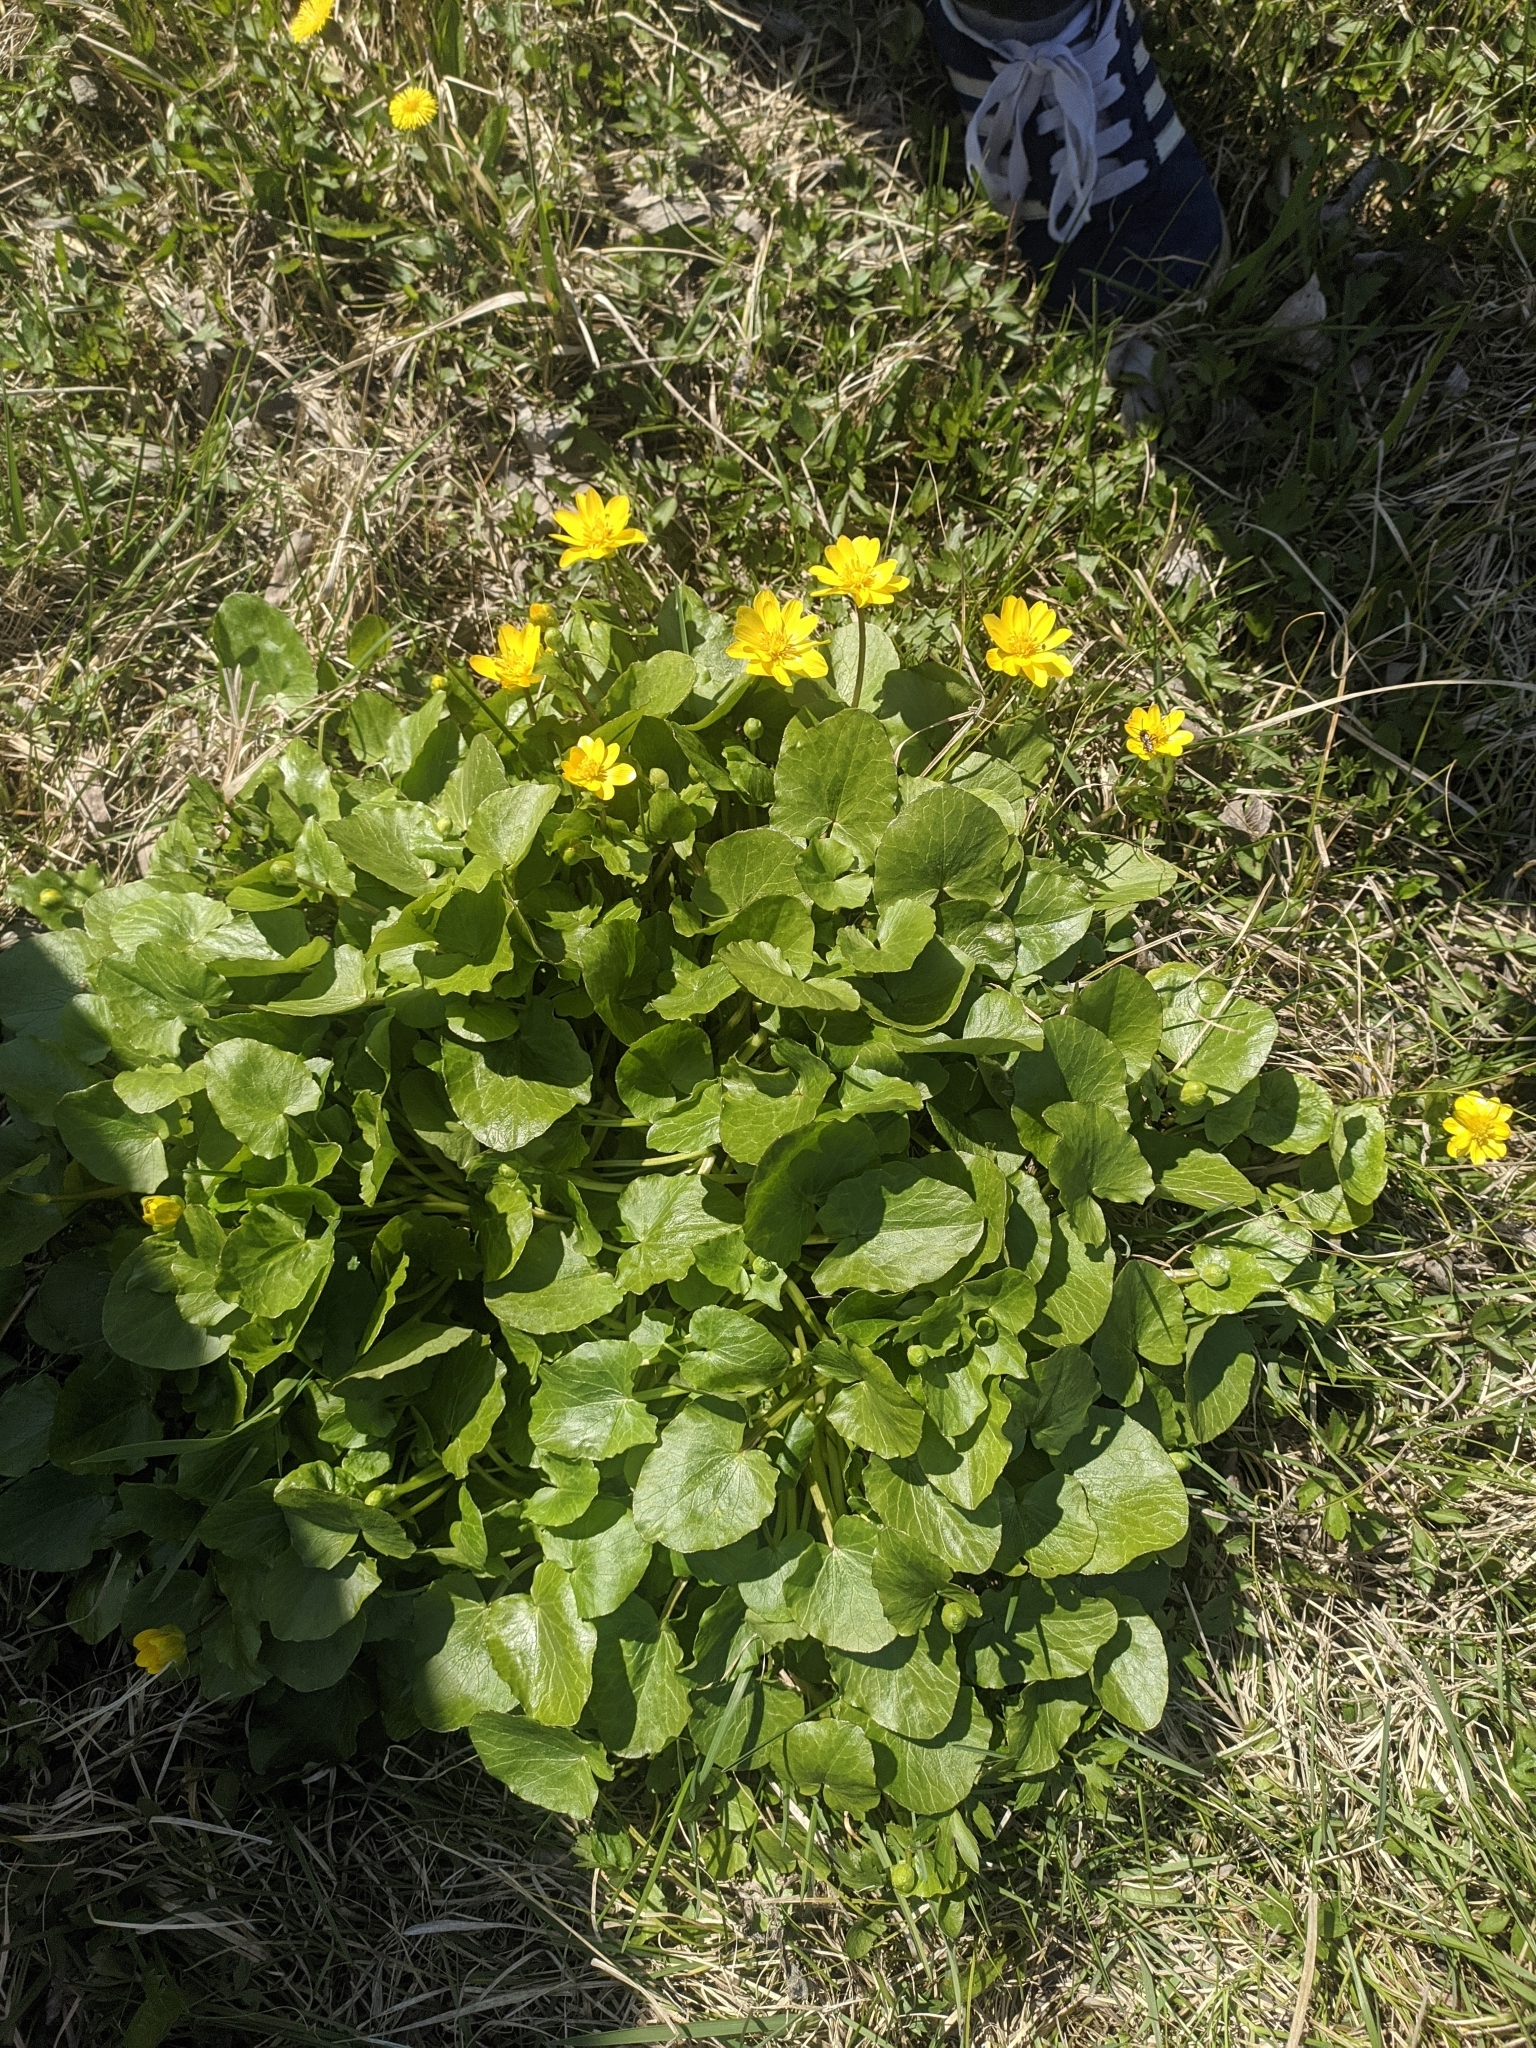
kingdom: Plantae
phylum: Tracheophyta
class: Magnoliopsida
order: Ranunculales
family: Ranunculaceae
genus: Ficaria
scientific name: Ficaria verna
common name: Lesser celandine
